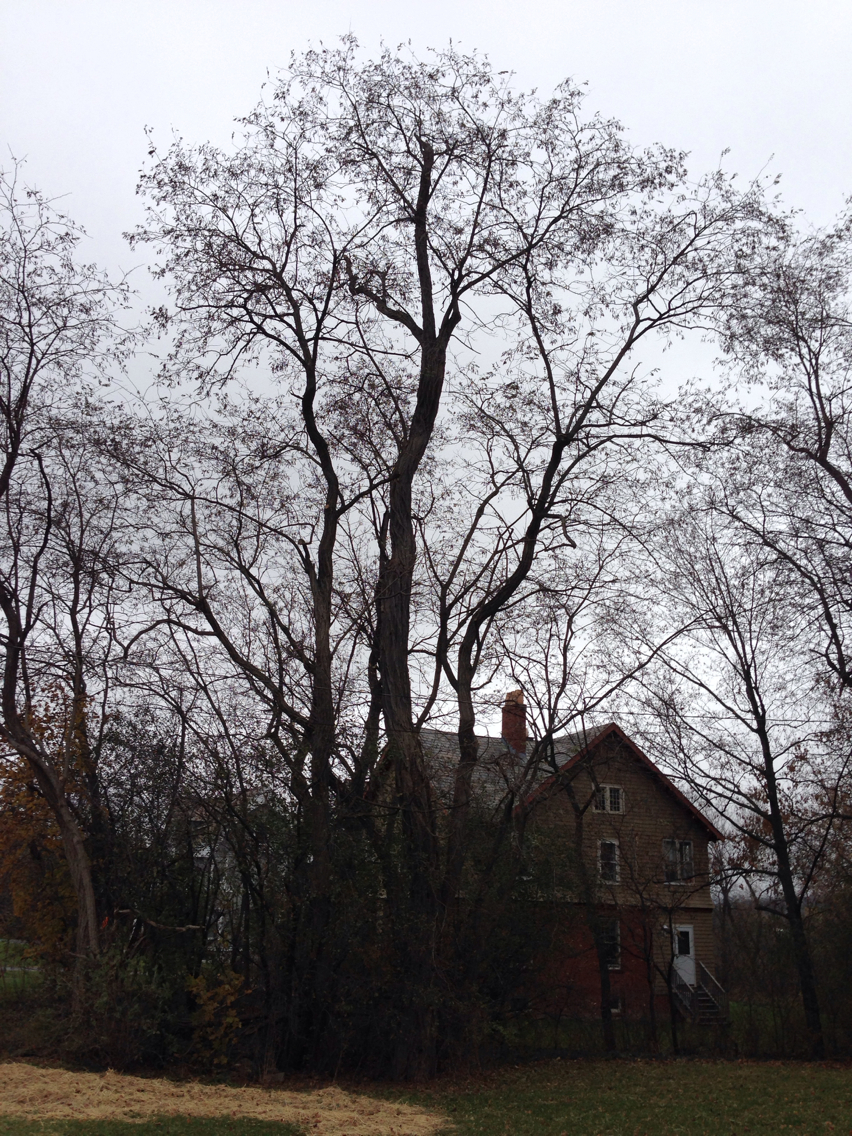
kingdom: Plantae
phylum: Tracheophyta
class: Magnoliopsida
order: Fabales
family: Fabaceae
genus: Robinia
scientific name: Robinia pseudoacacia
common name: Black locust
